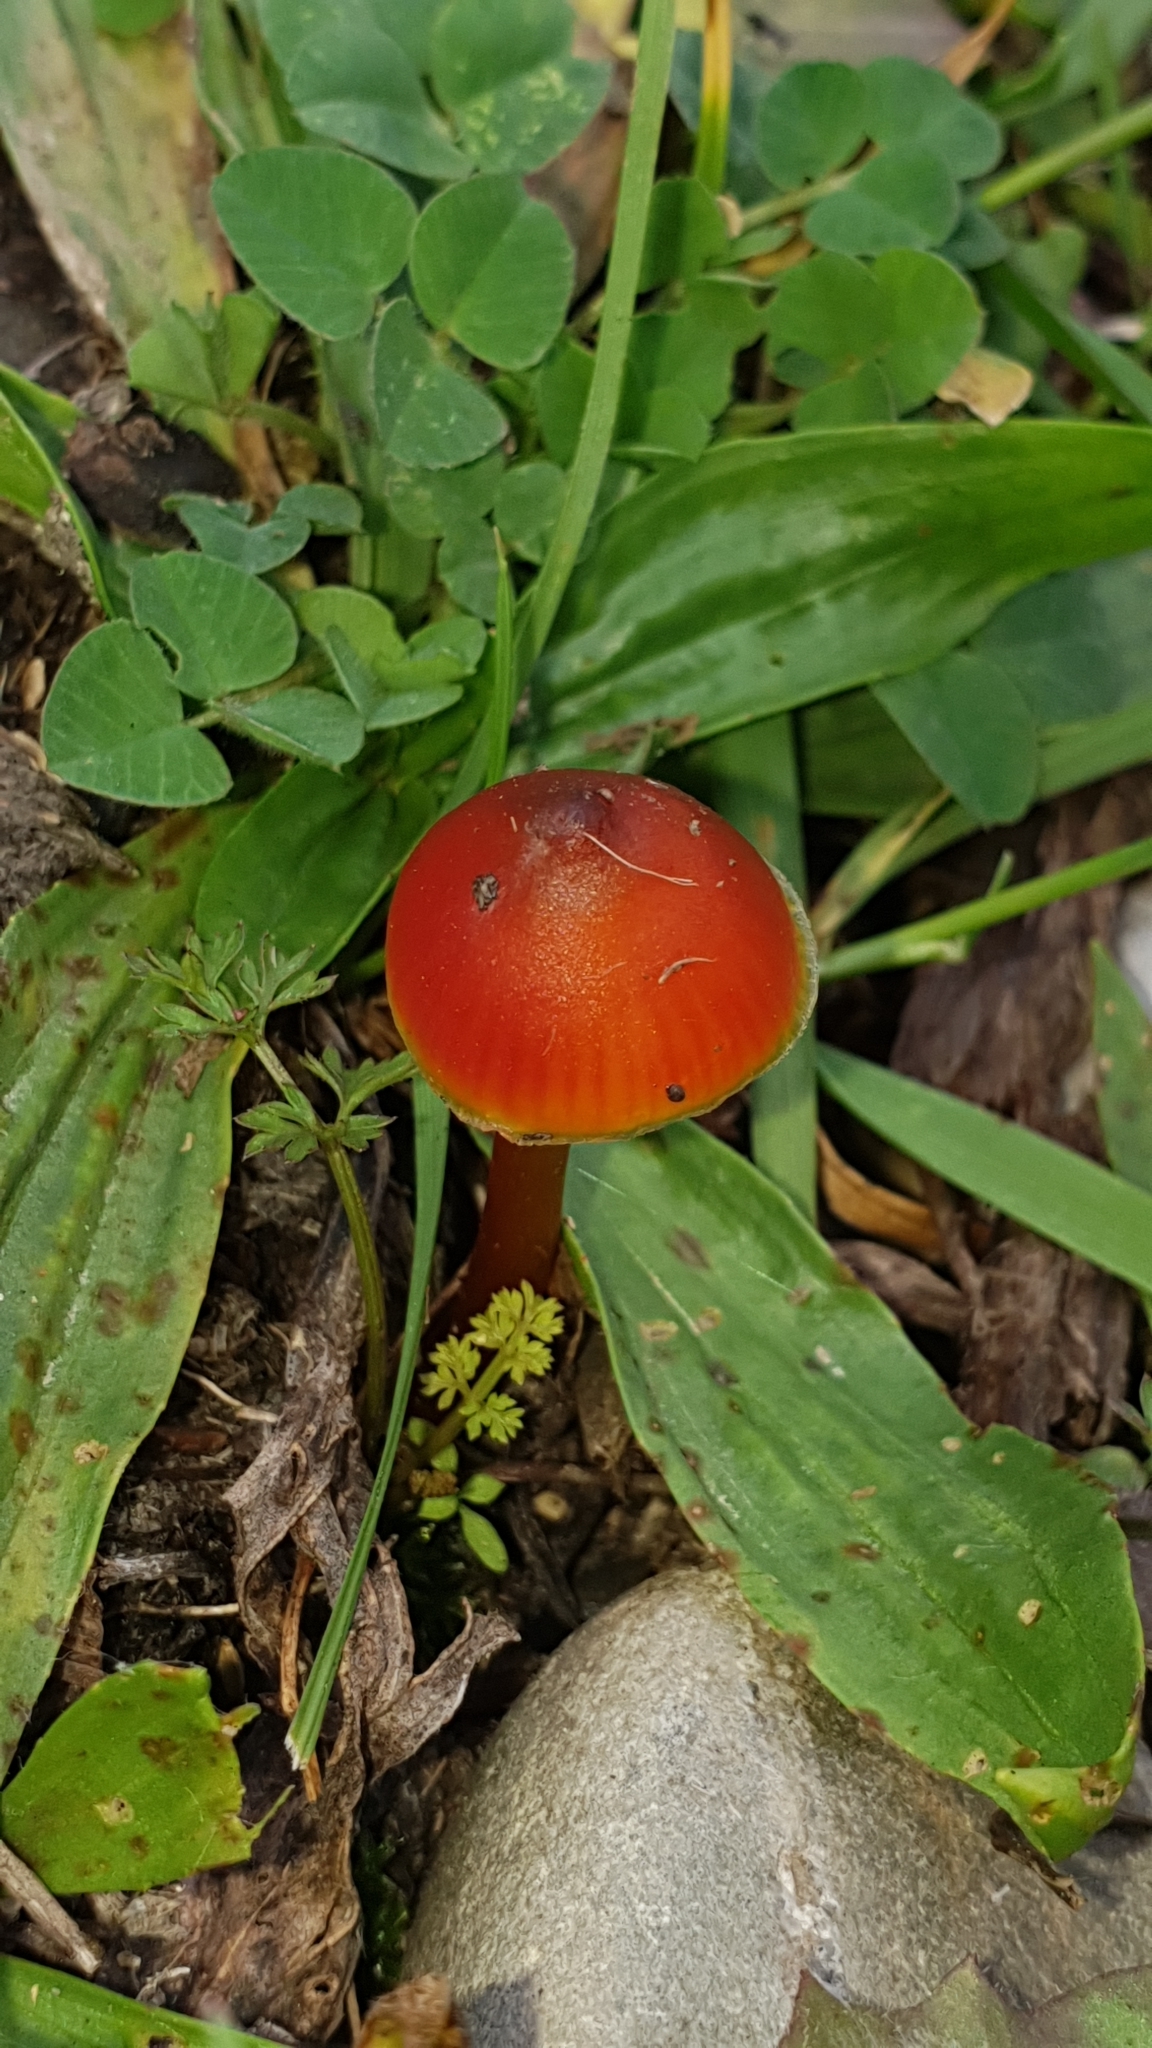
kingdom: Fungi
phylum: Basidiomycota
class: Agaricomycetes
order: Agaricales
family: Hygrophoraceae
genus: Hygrocybe
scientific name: Hygrocybe conica
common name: Blackening wax-cap
